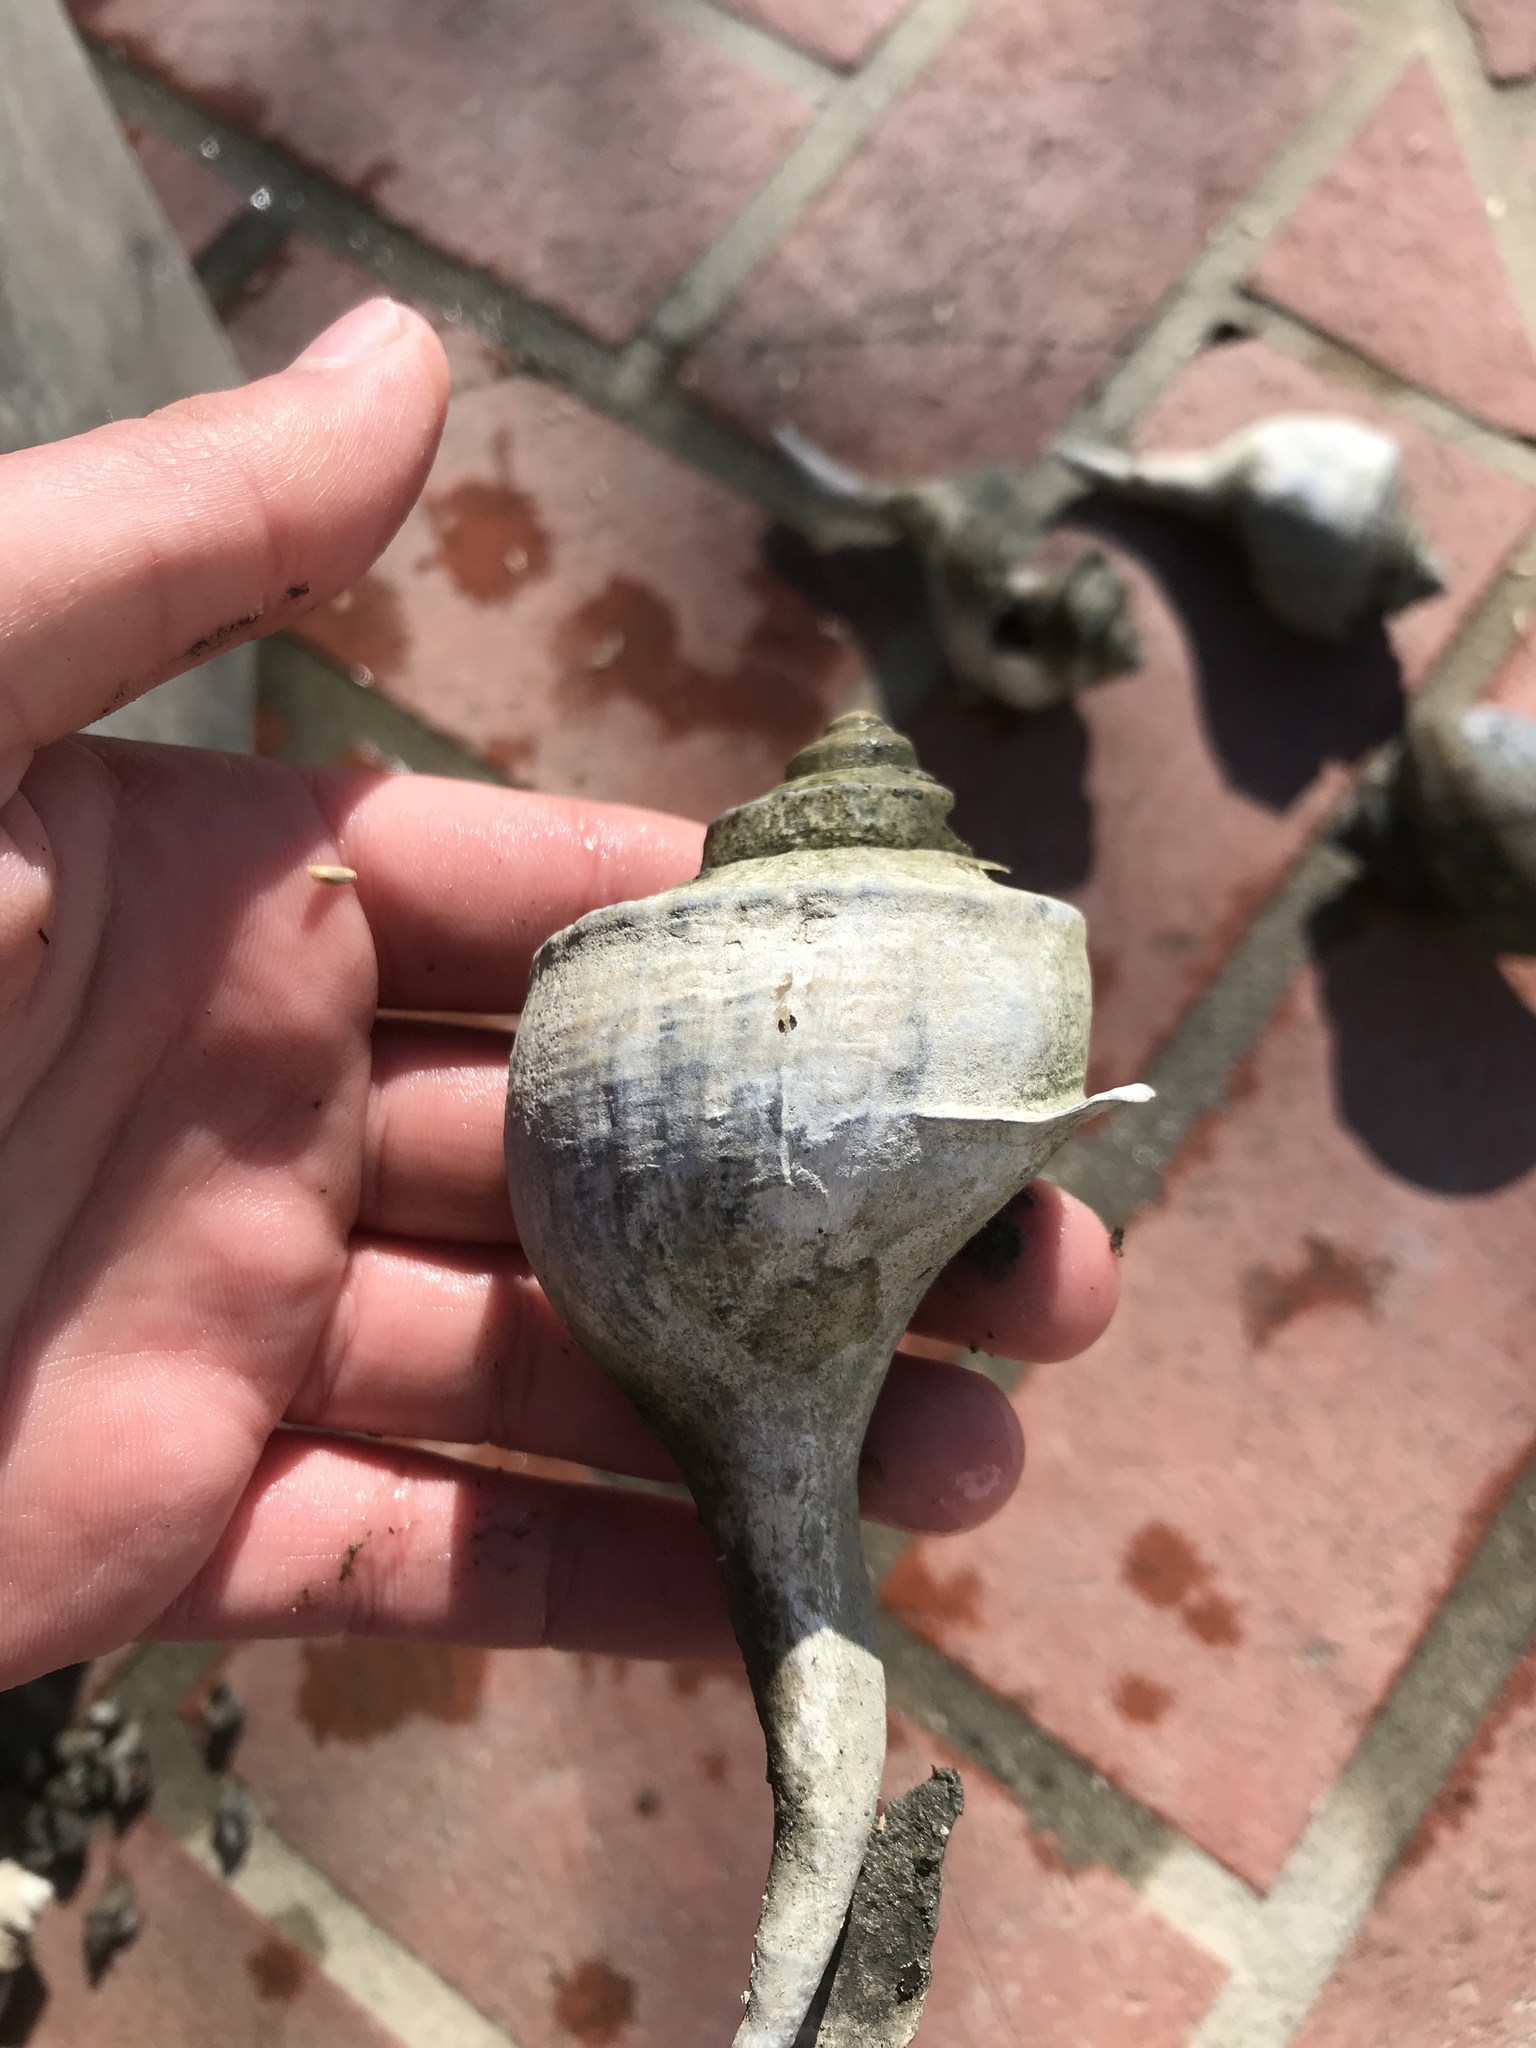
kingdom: Animalia
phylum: Mollusca
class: Gastropoda
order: Neogastropoda
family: Busyconidae
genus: Busycotypus
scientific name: Busycotypus canaliculatus
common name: Channeled whelk
